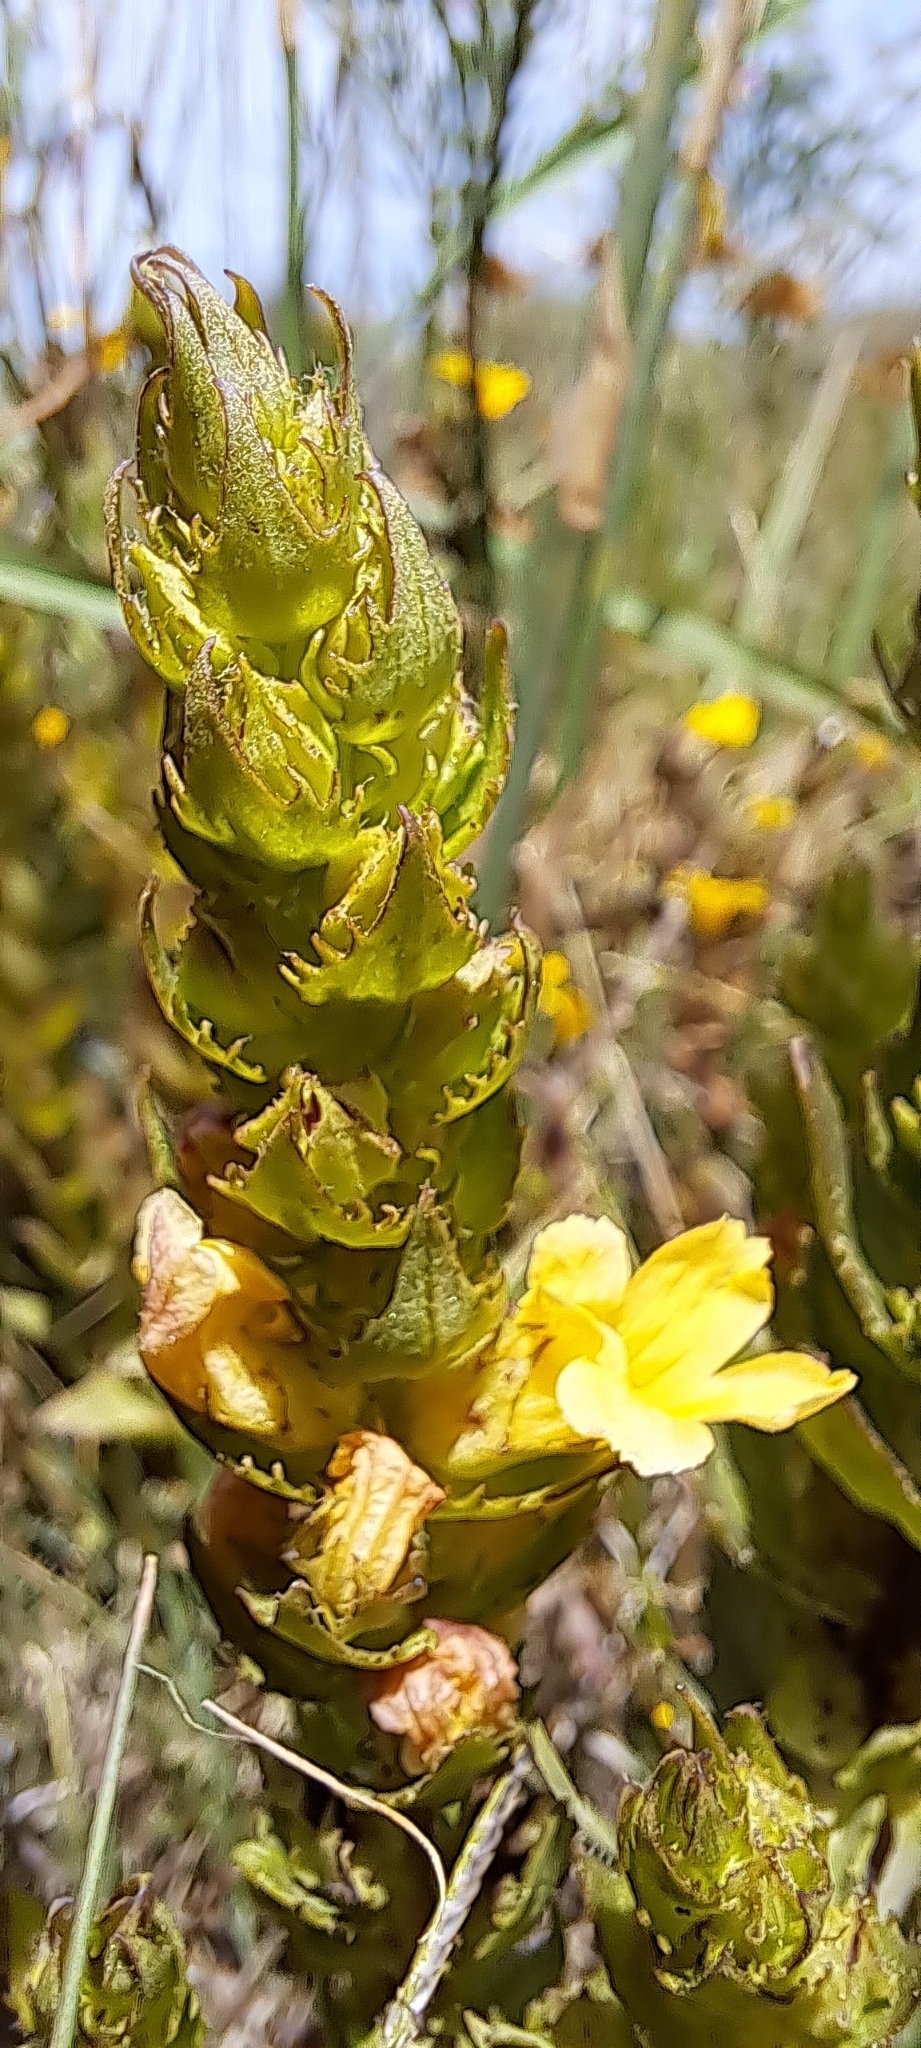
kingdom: Plantae
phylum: Tracheophyta
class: Magnoliopsida
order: Lamiales
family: Orobanchaceae
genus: Alectra
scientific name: Alectra sessiliflora
